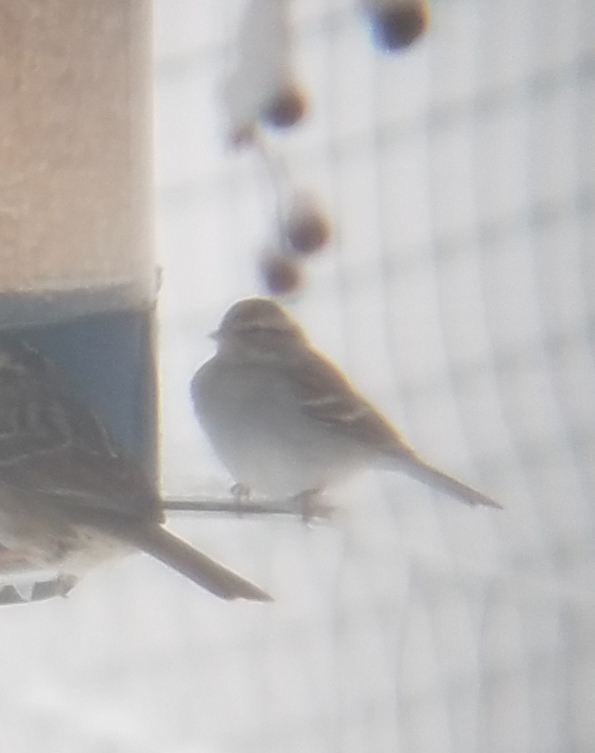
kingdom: Animalia
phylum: Chordata
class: Aves
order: Passeriformes
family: Passerellidae
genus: Spizella
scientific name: Spizella passerina
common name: Chipping sparrow
